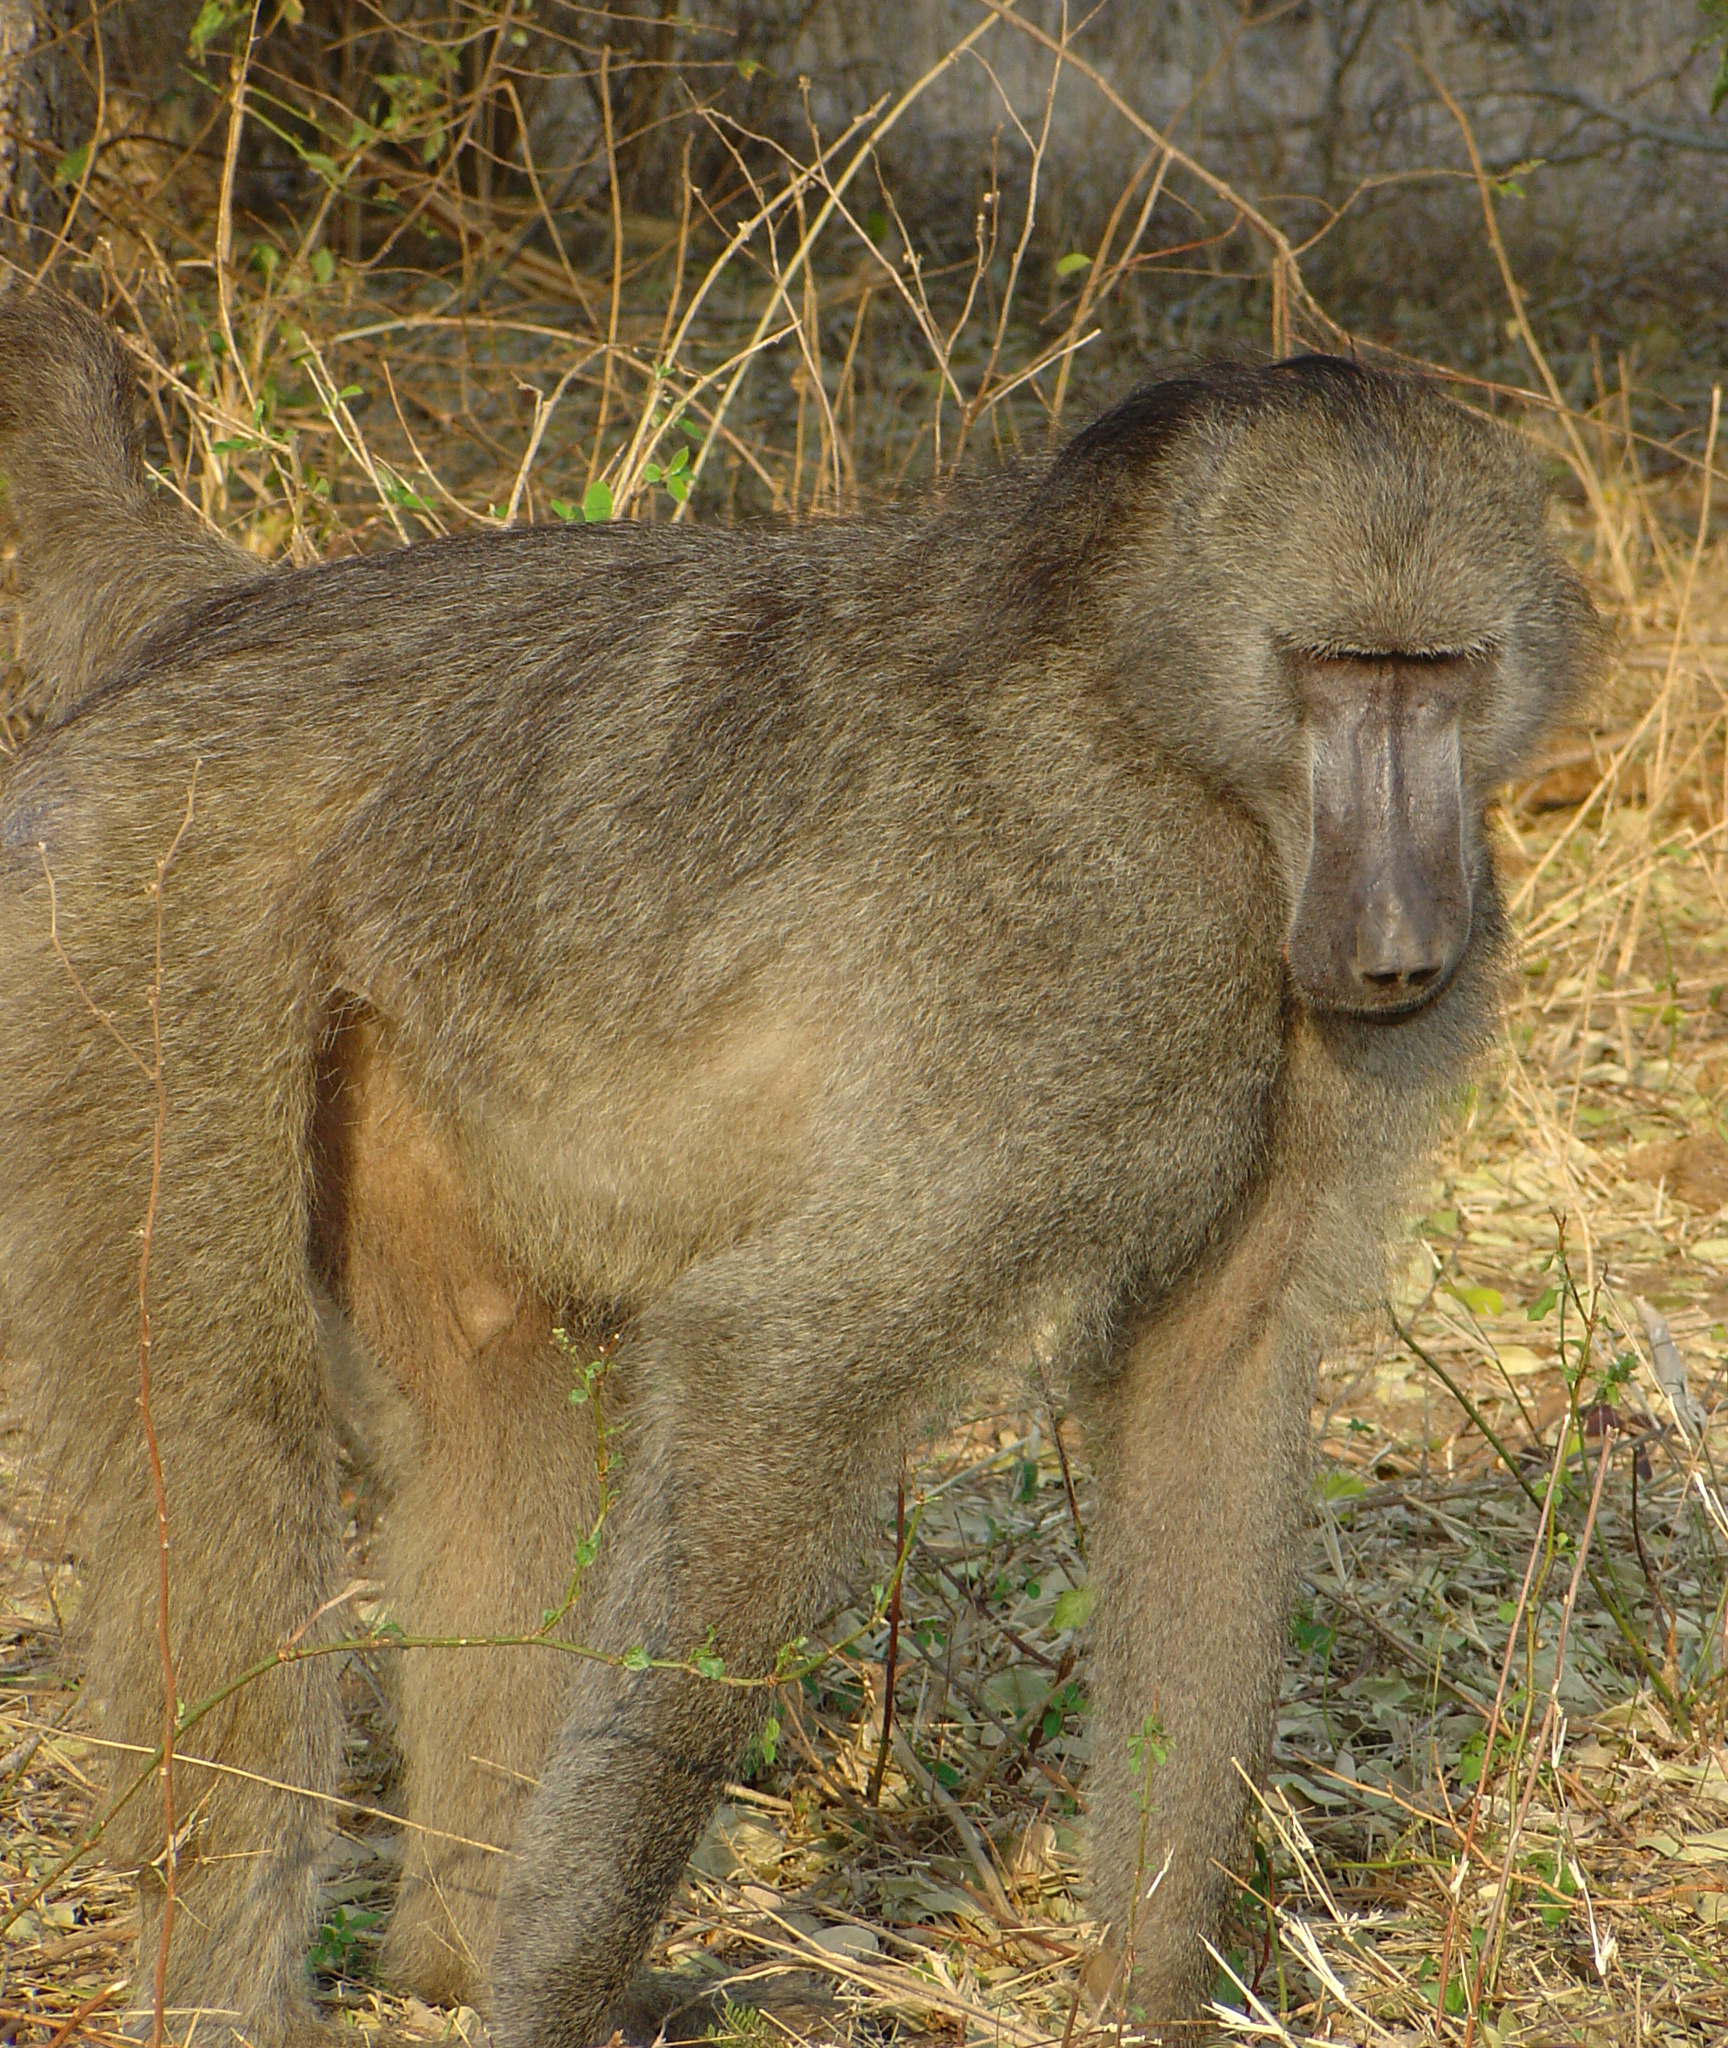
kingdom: Animalia
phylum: Chordata
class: Mammalia
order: Primates
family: Cercopithecidae
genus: Papio
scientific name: Papio ursinus
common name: Chacma baboon
